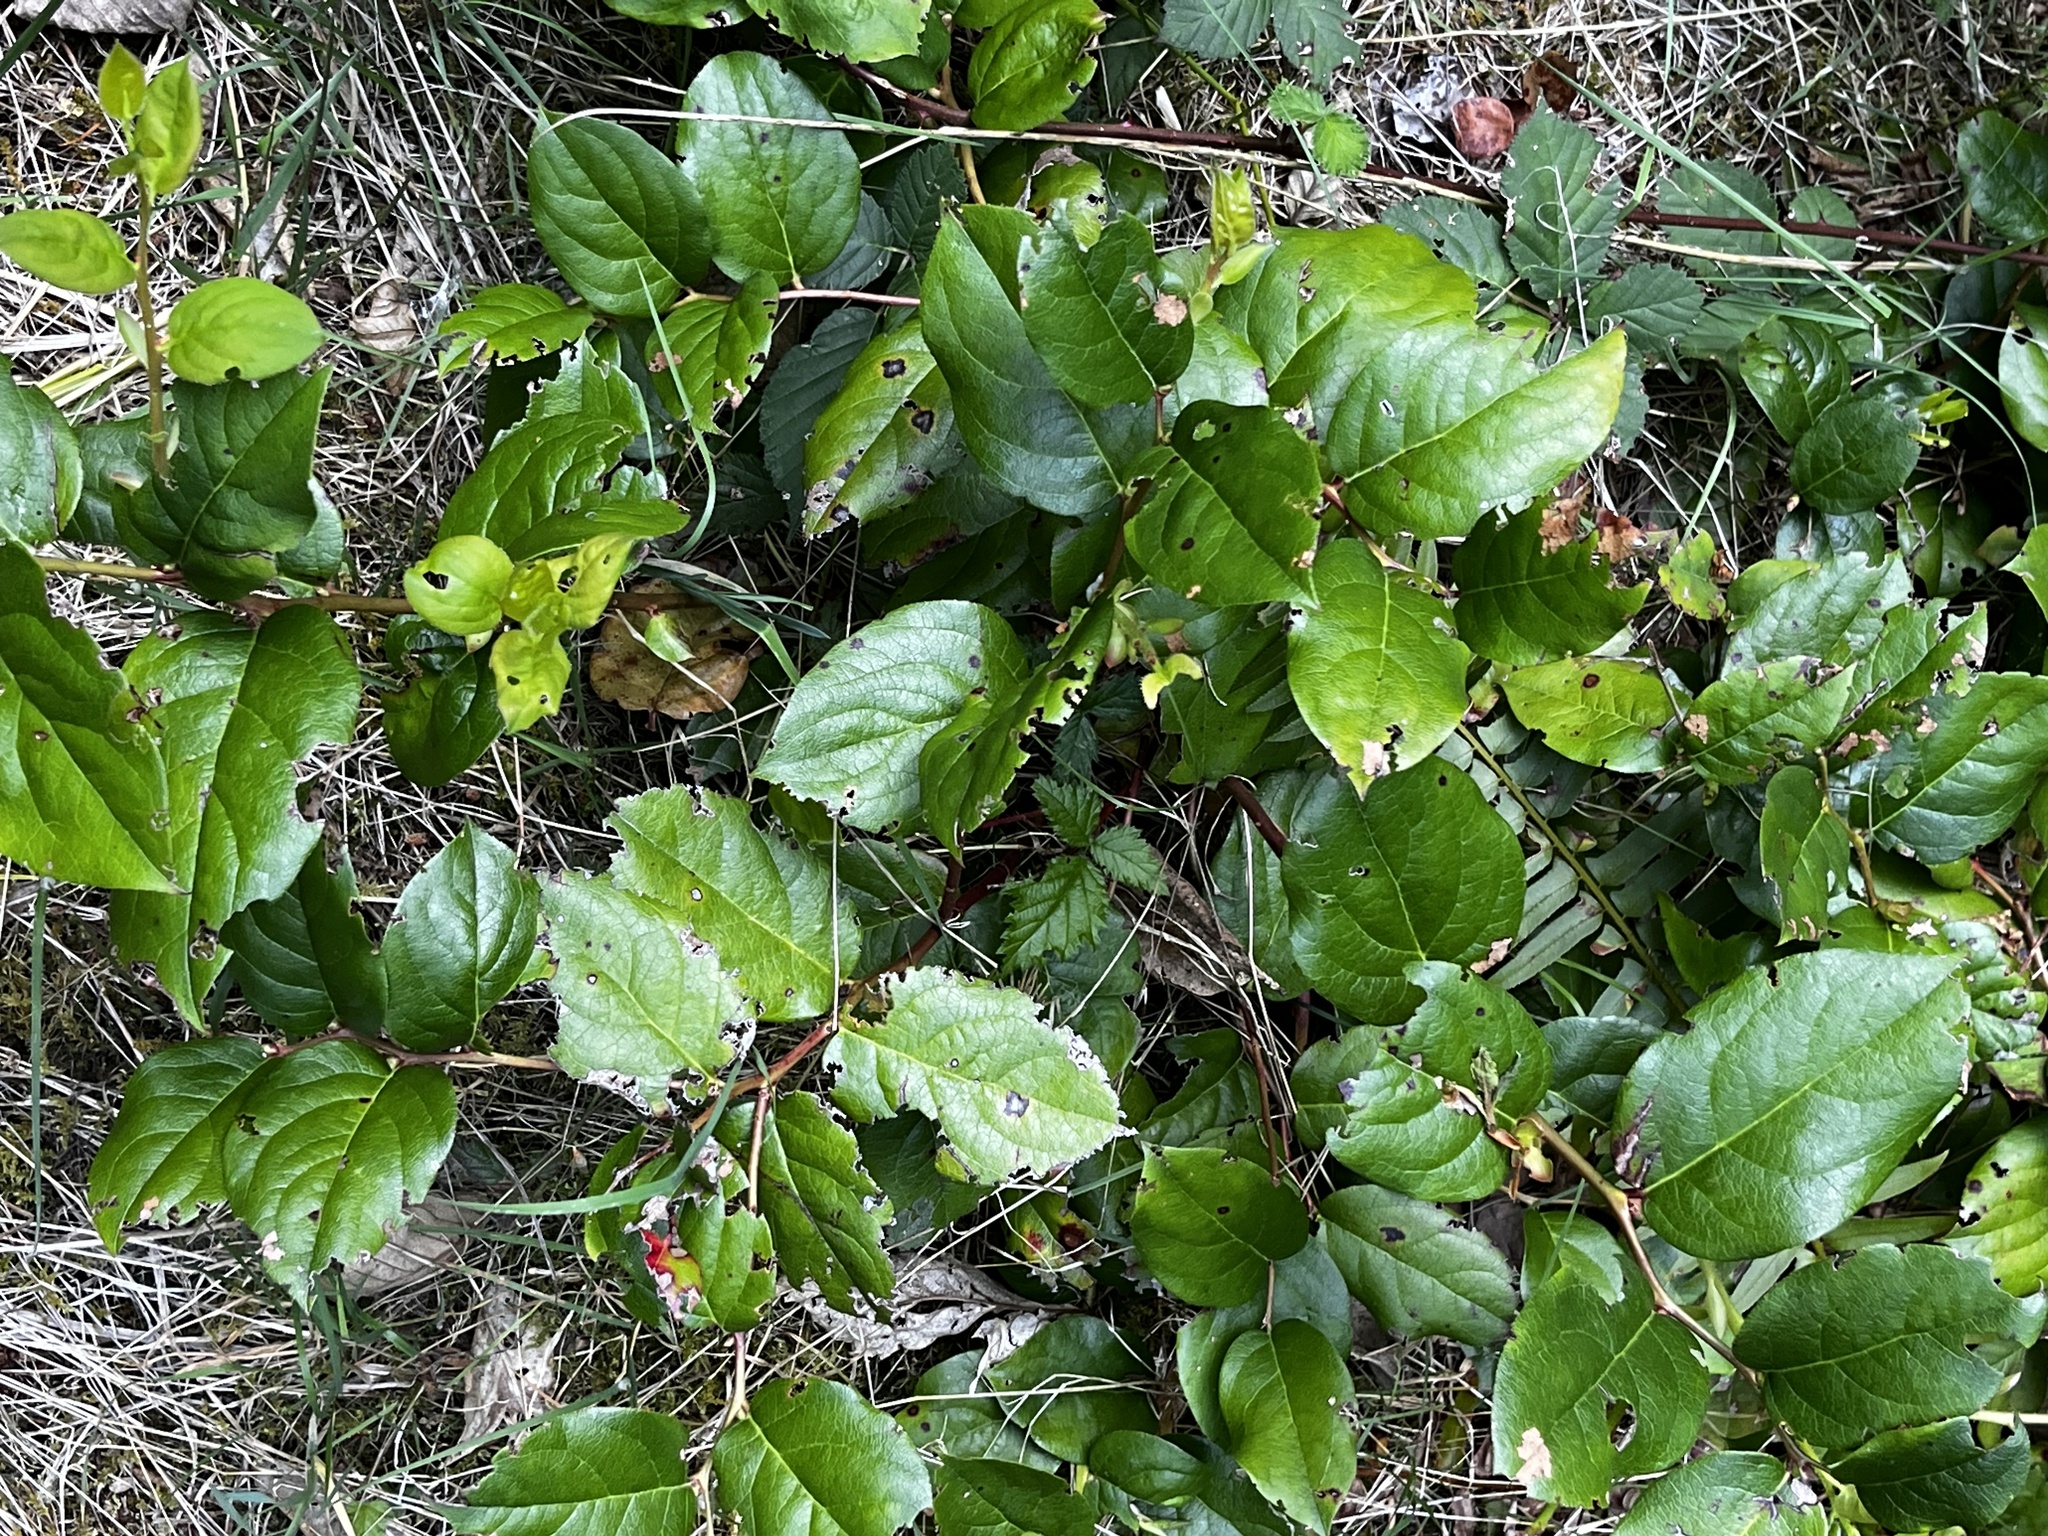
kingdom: Plantae
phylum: Tracheophyta
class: Magnoliopsida
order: Ericales
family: Ericaceae
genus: Gaultheria
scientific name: Gaultheria shallon
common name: Shallon
